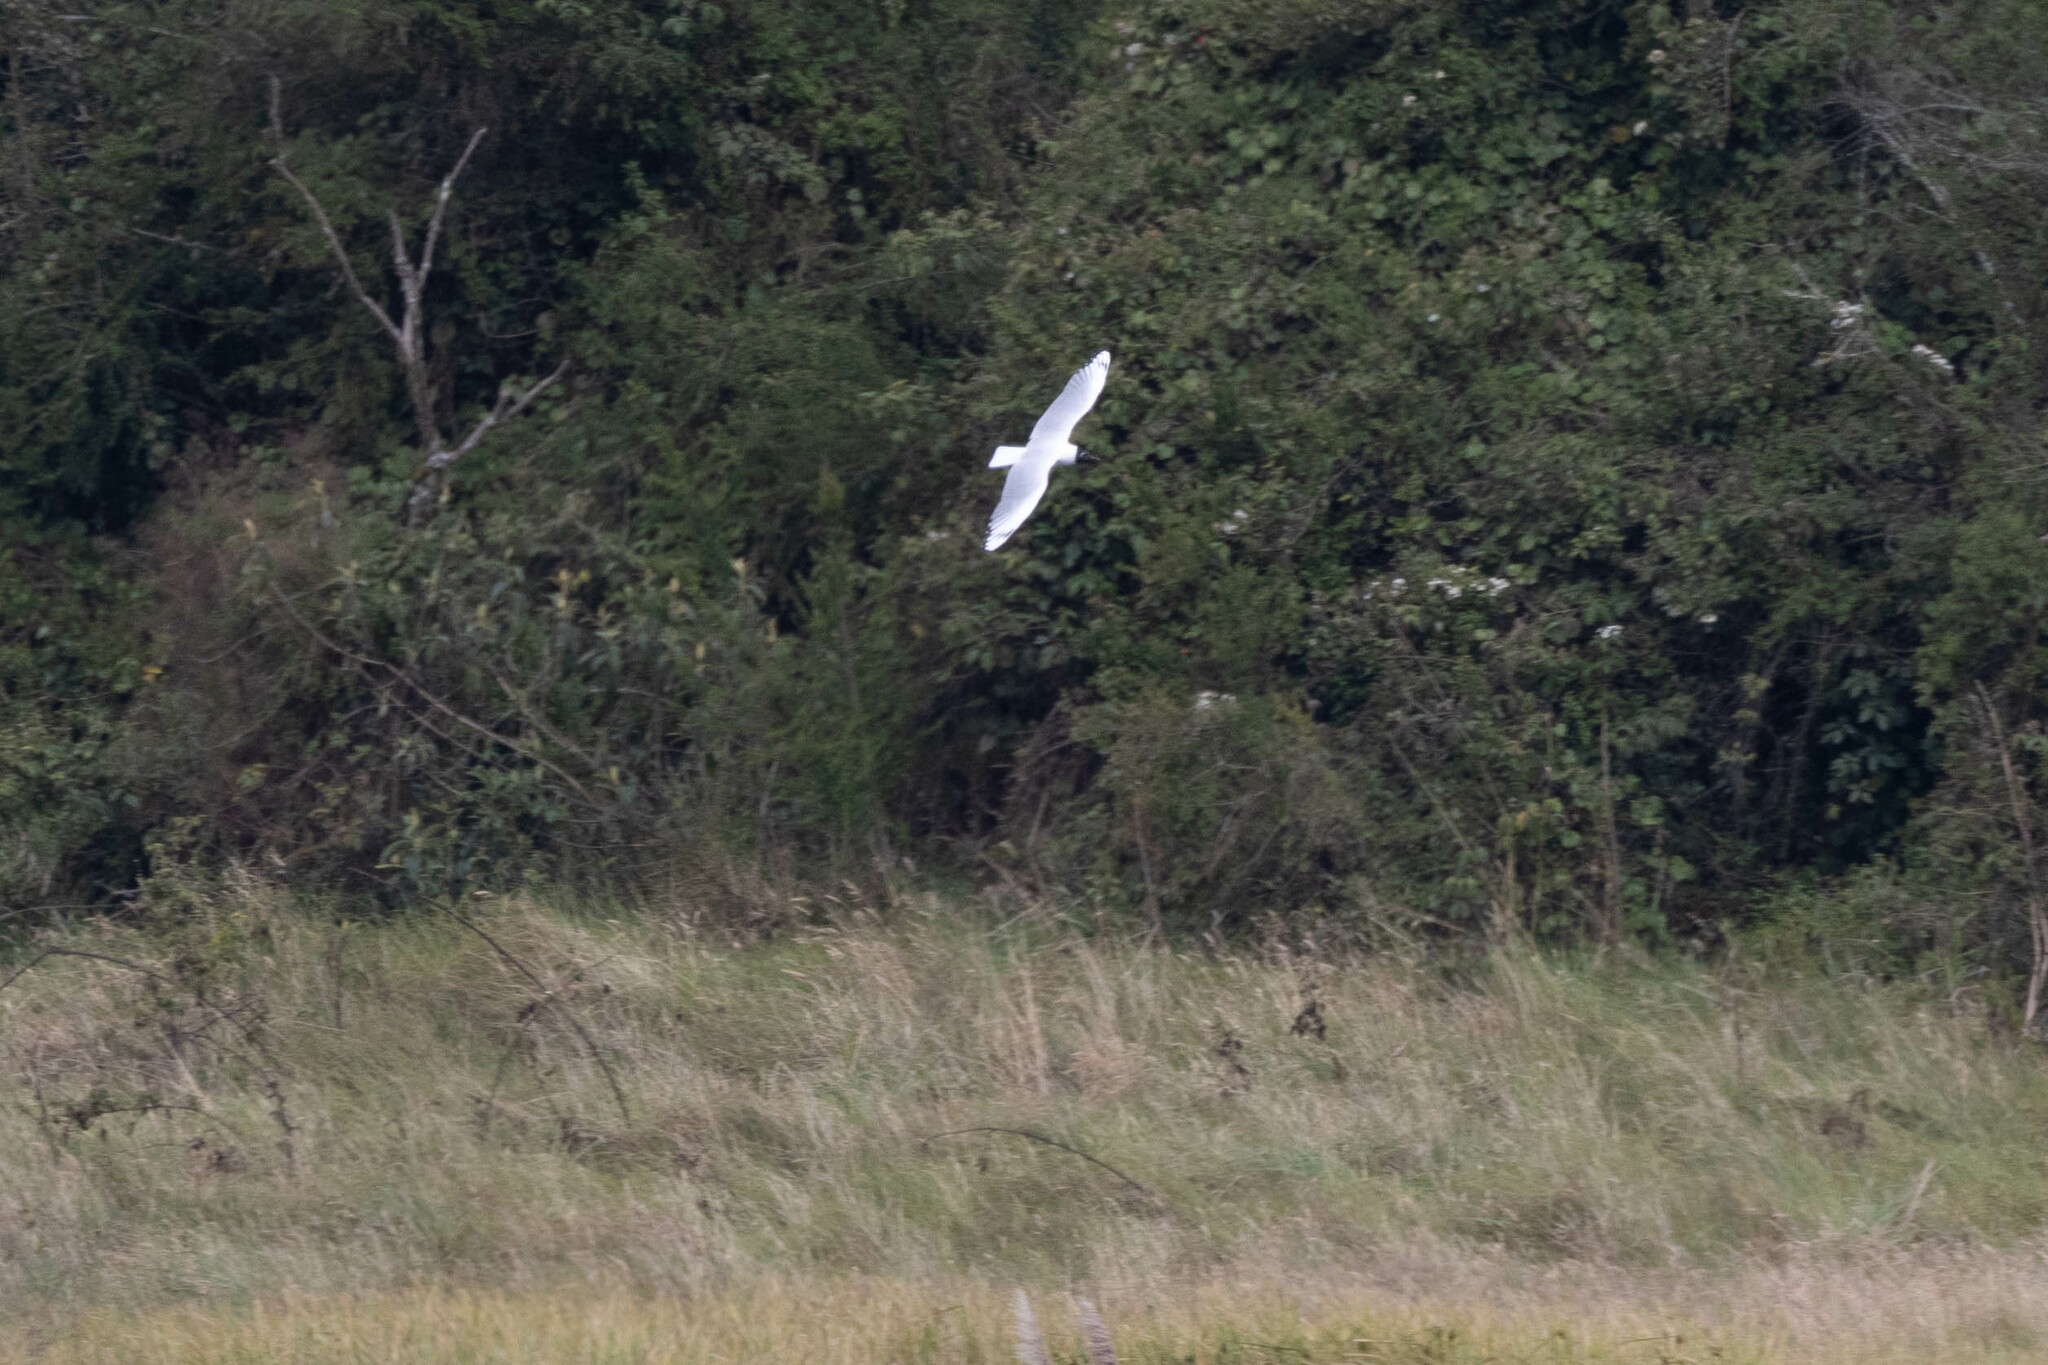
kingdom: Animalia
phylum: Chordata
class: Aves
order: Charadriiformes
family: Laridae
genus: Chroicocephalus
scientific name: Chroicocephalus serranus
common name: Andean gull
